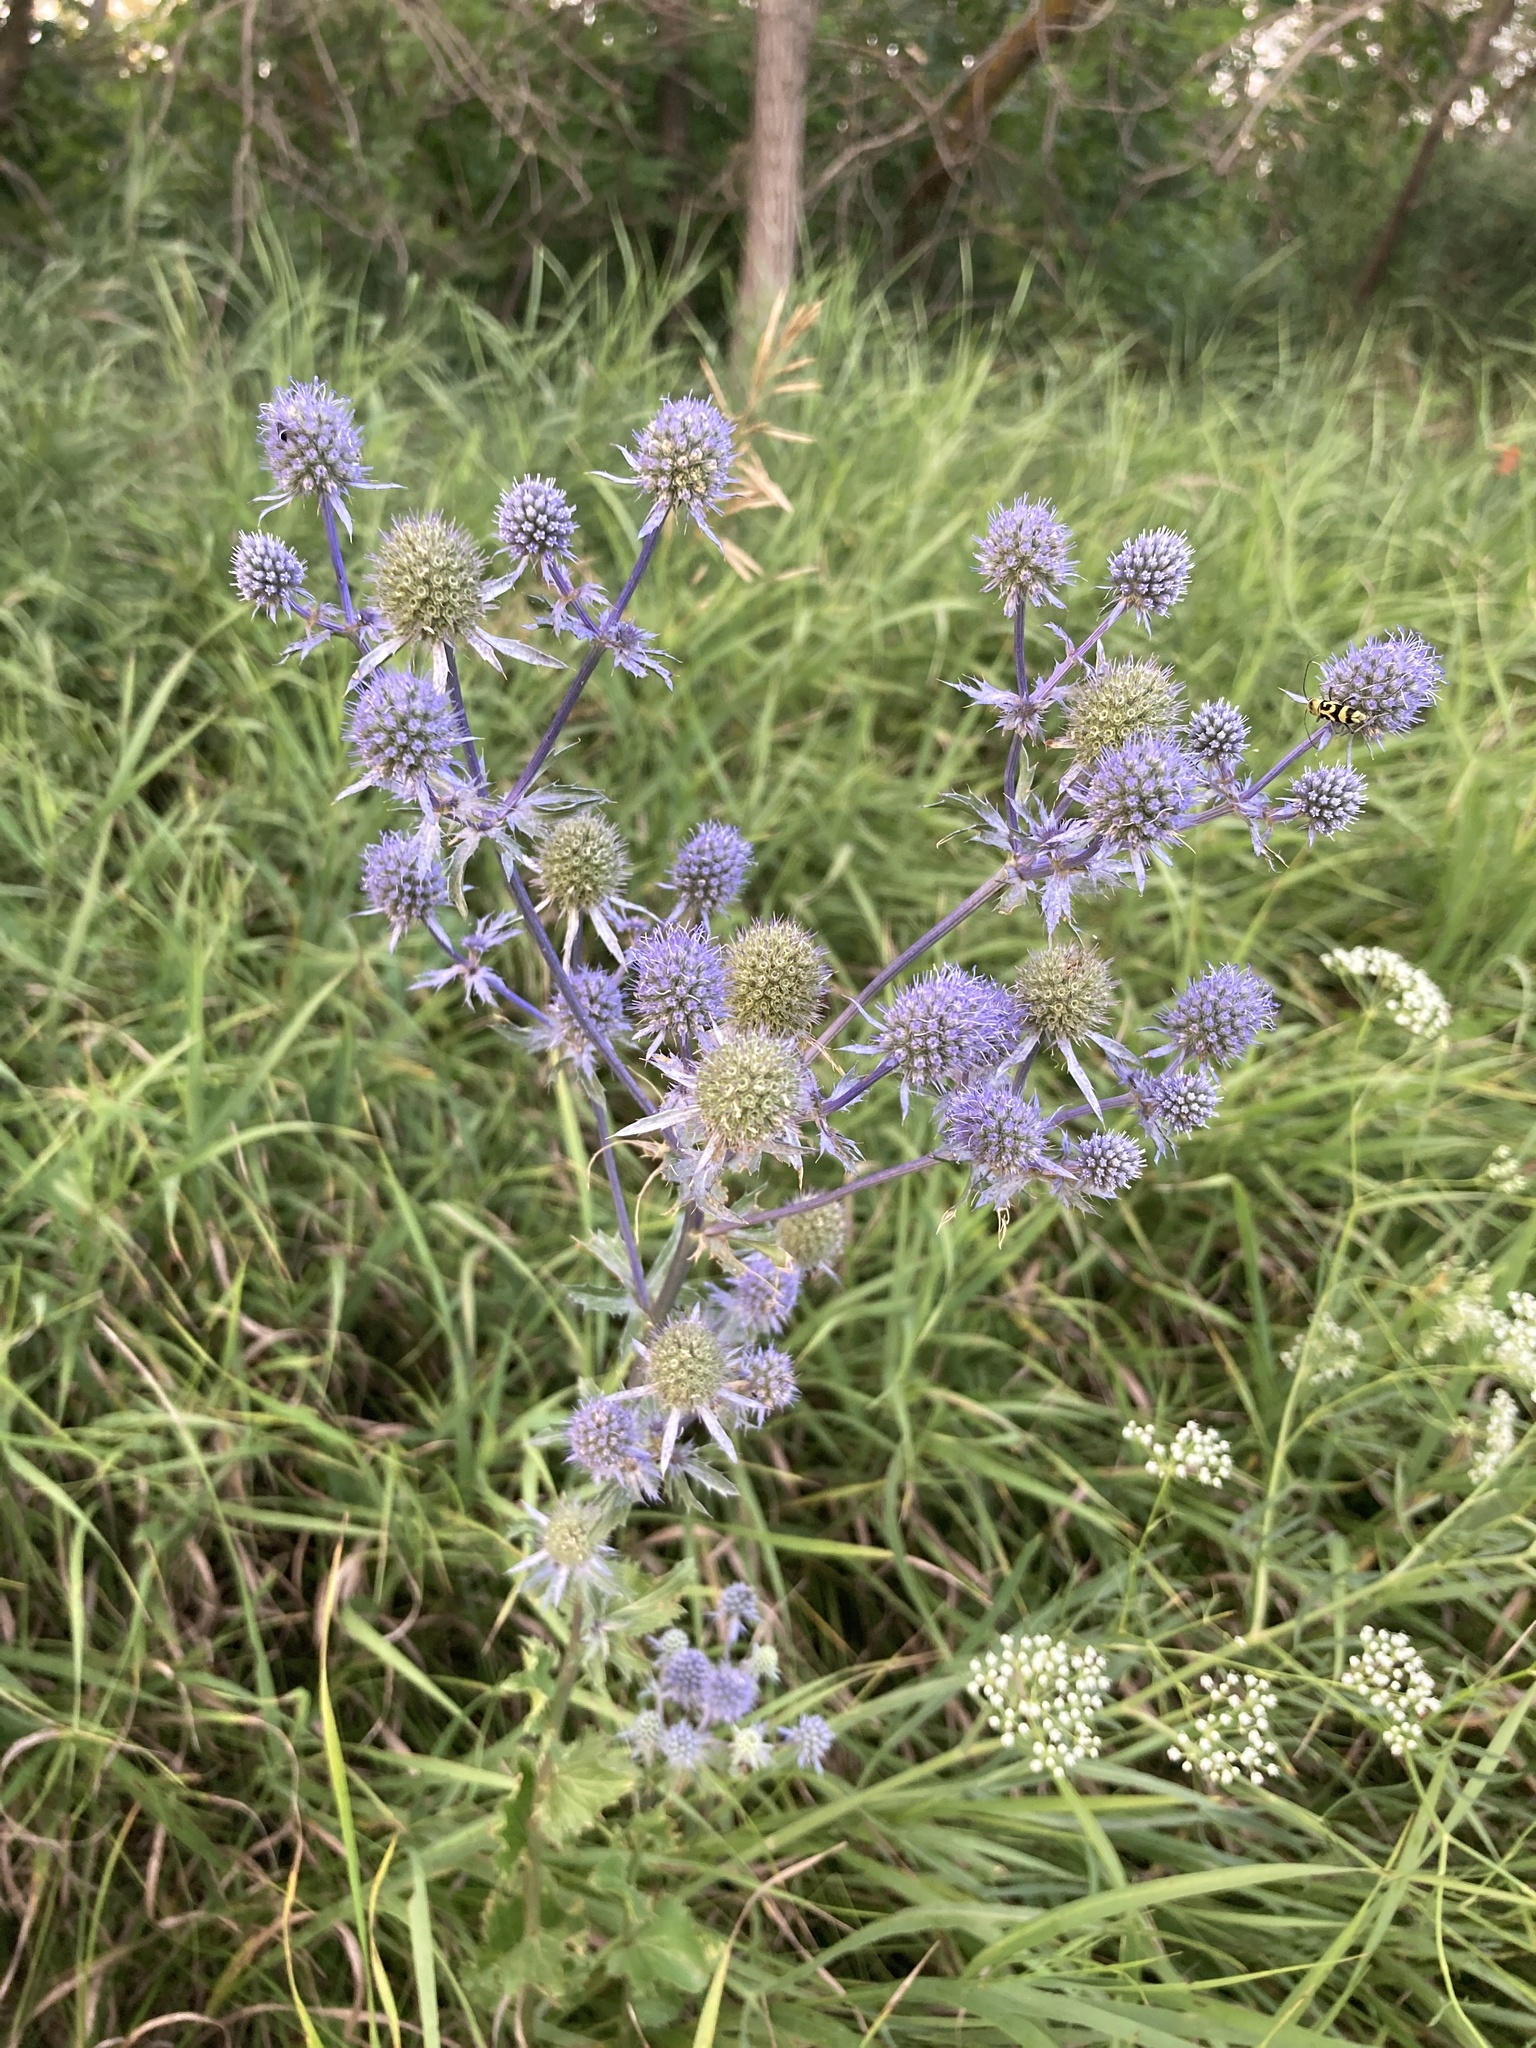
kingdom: Plantae
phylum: Tracheophyta
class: Magnoliopsida
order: Apiales
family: Apiaceae
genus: Eryngium
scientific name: Eryngium planum
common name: Blue eryngo
